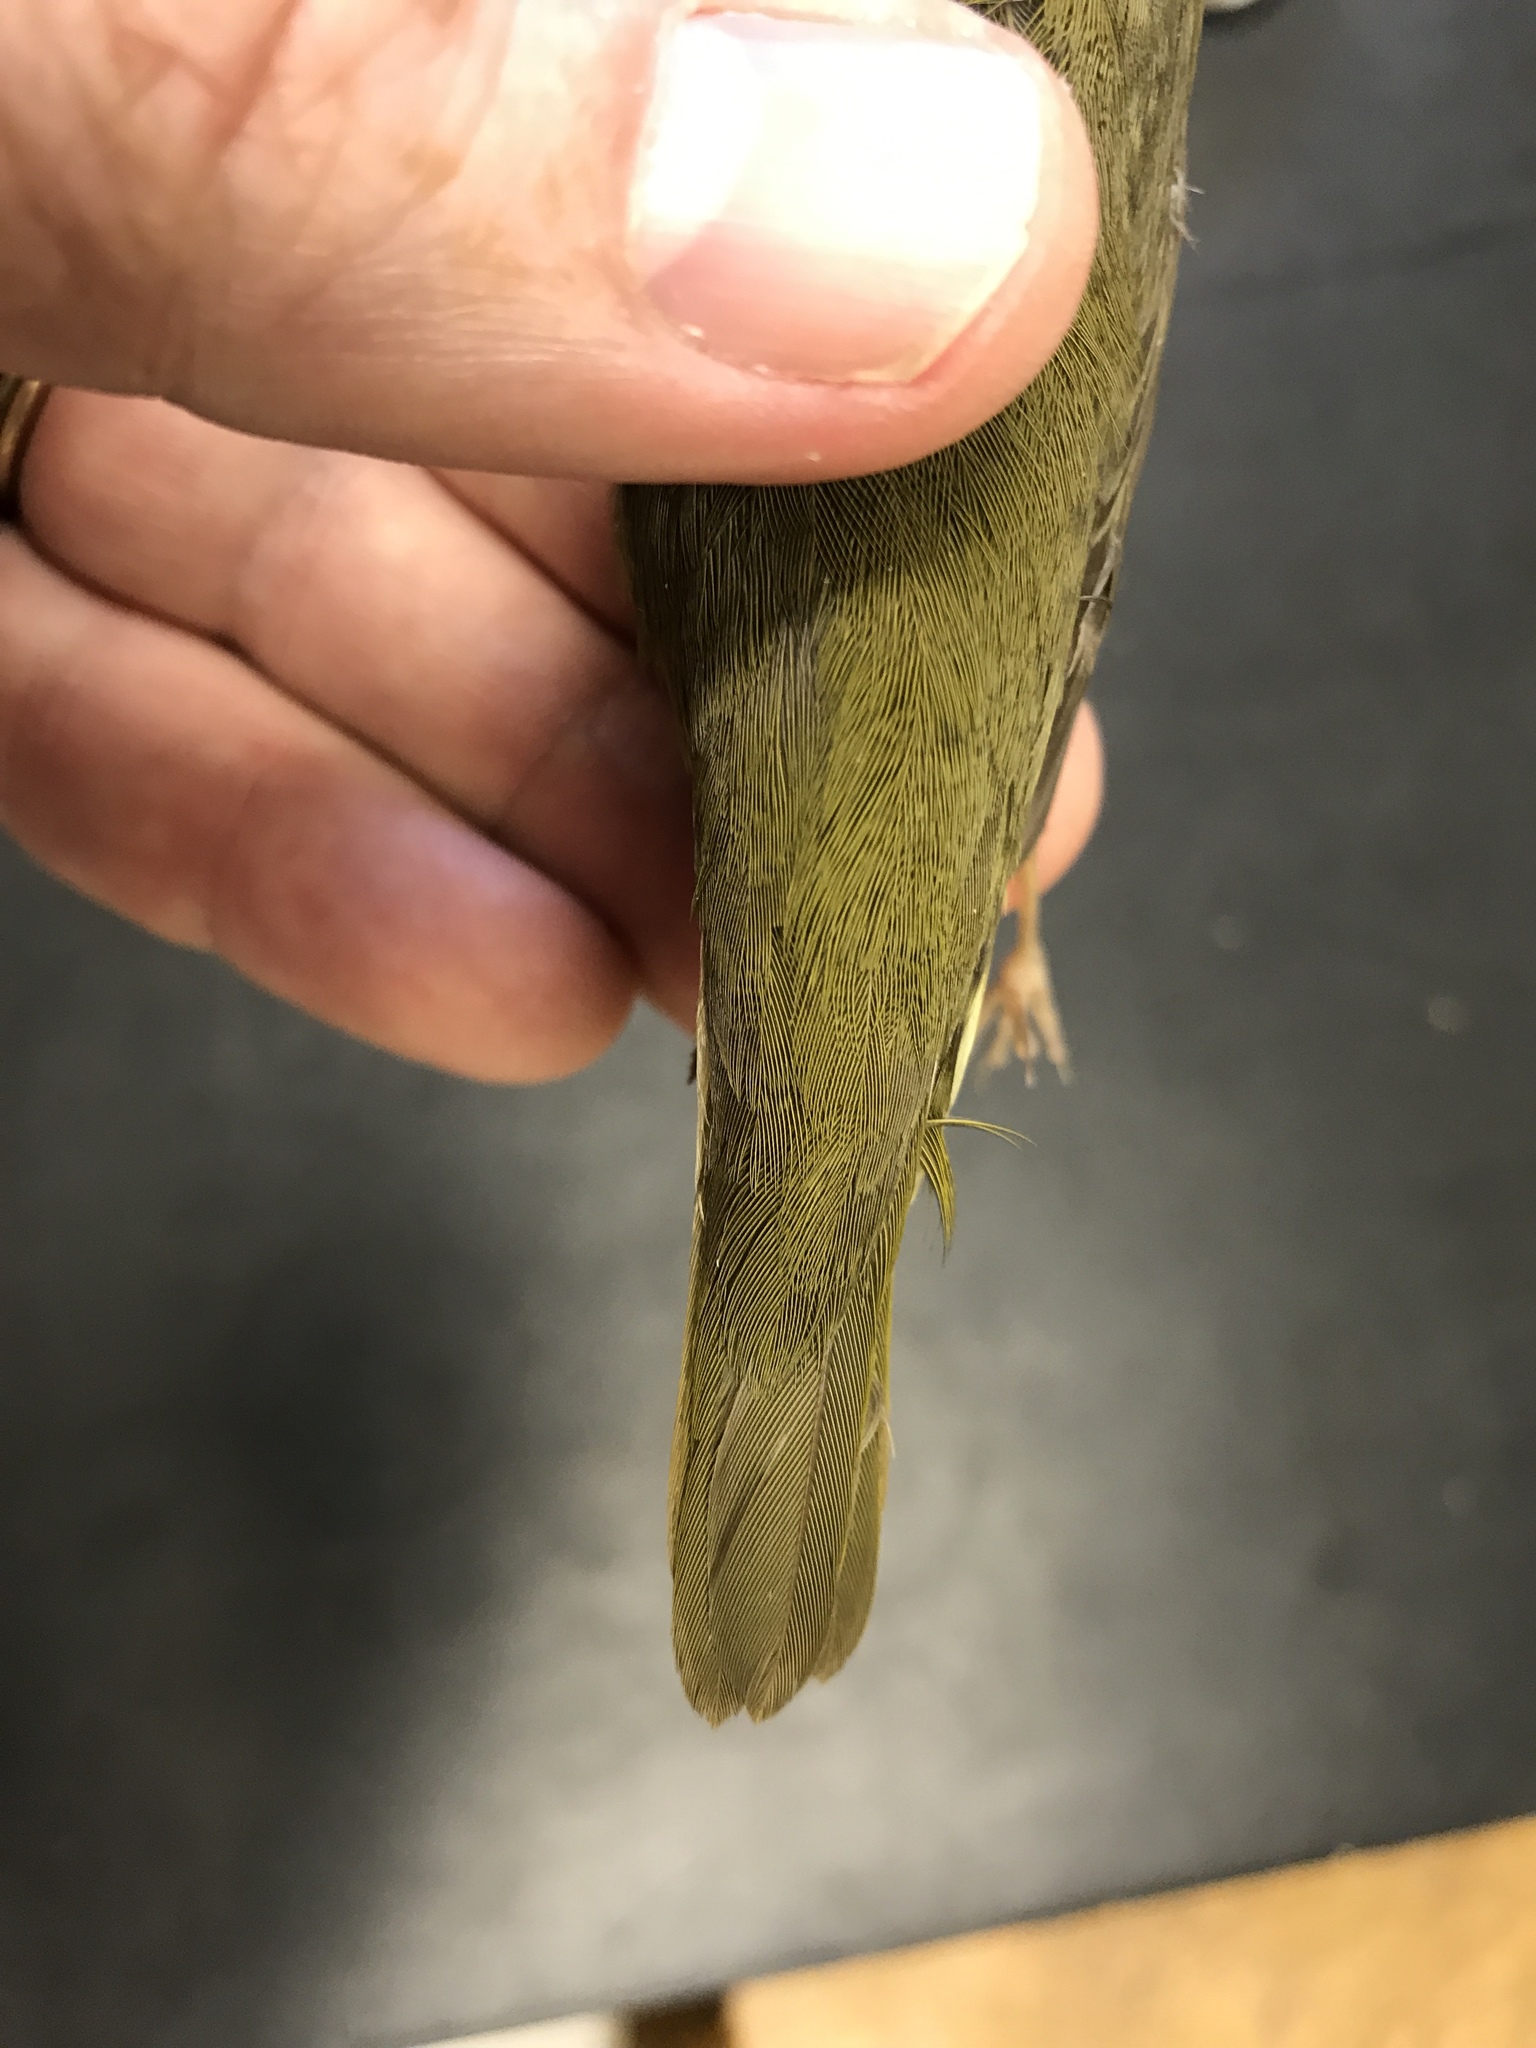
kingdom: Animalia
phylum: Chordata
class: Aves
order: Passeriformes
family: Parulidae
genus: Oporornis
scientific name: Oporornis agilis
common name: Connecticut warbler
